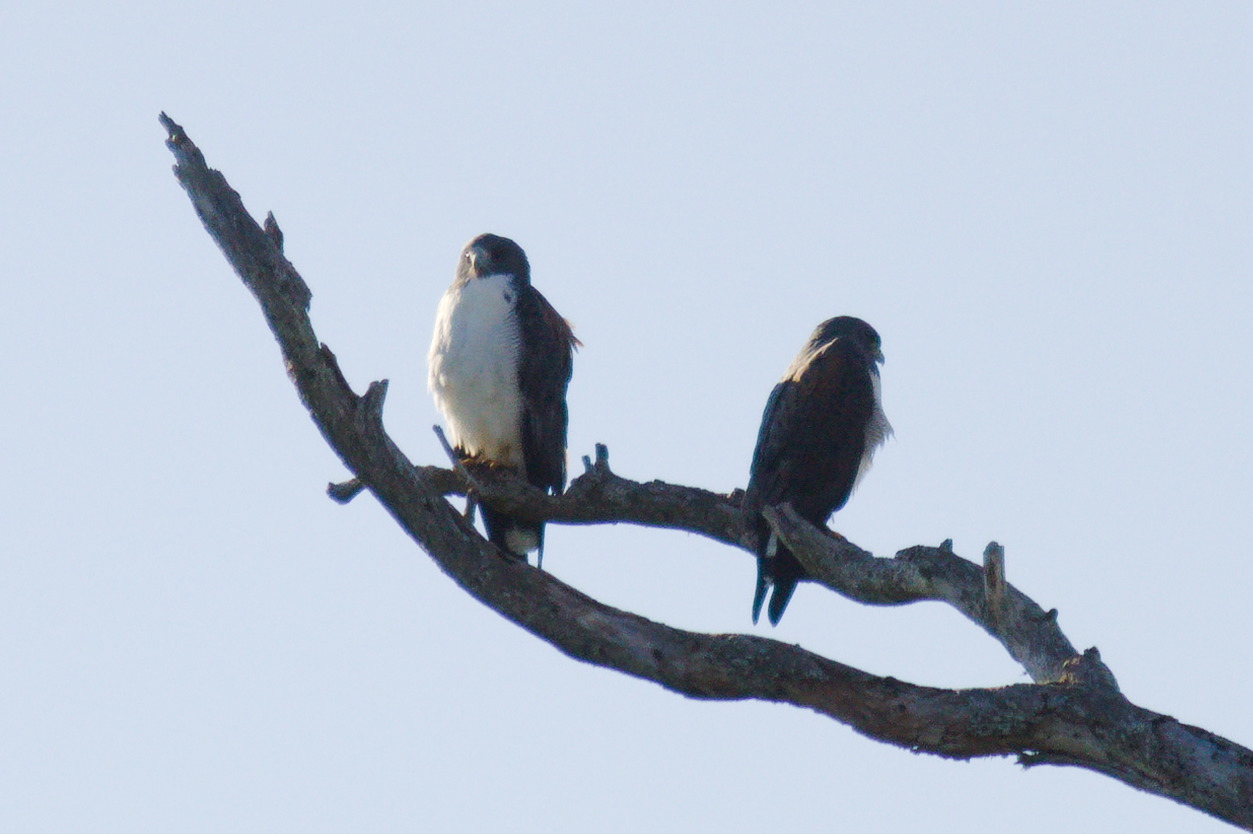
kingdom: Animalia
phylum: Chordata
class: Aves
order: Accipitriformes
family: Accipitridae
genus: Buteo
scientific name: Buteo albicaudatus
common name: White-tailed hawk
